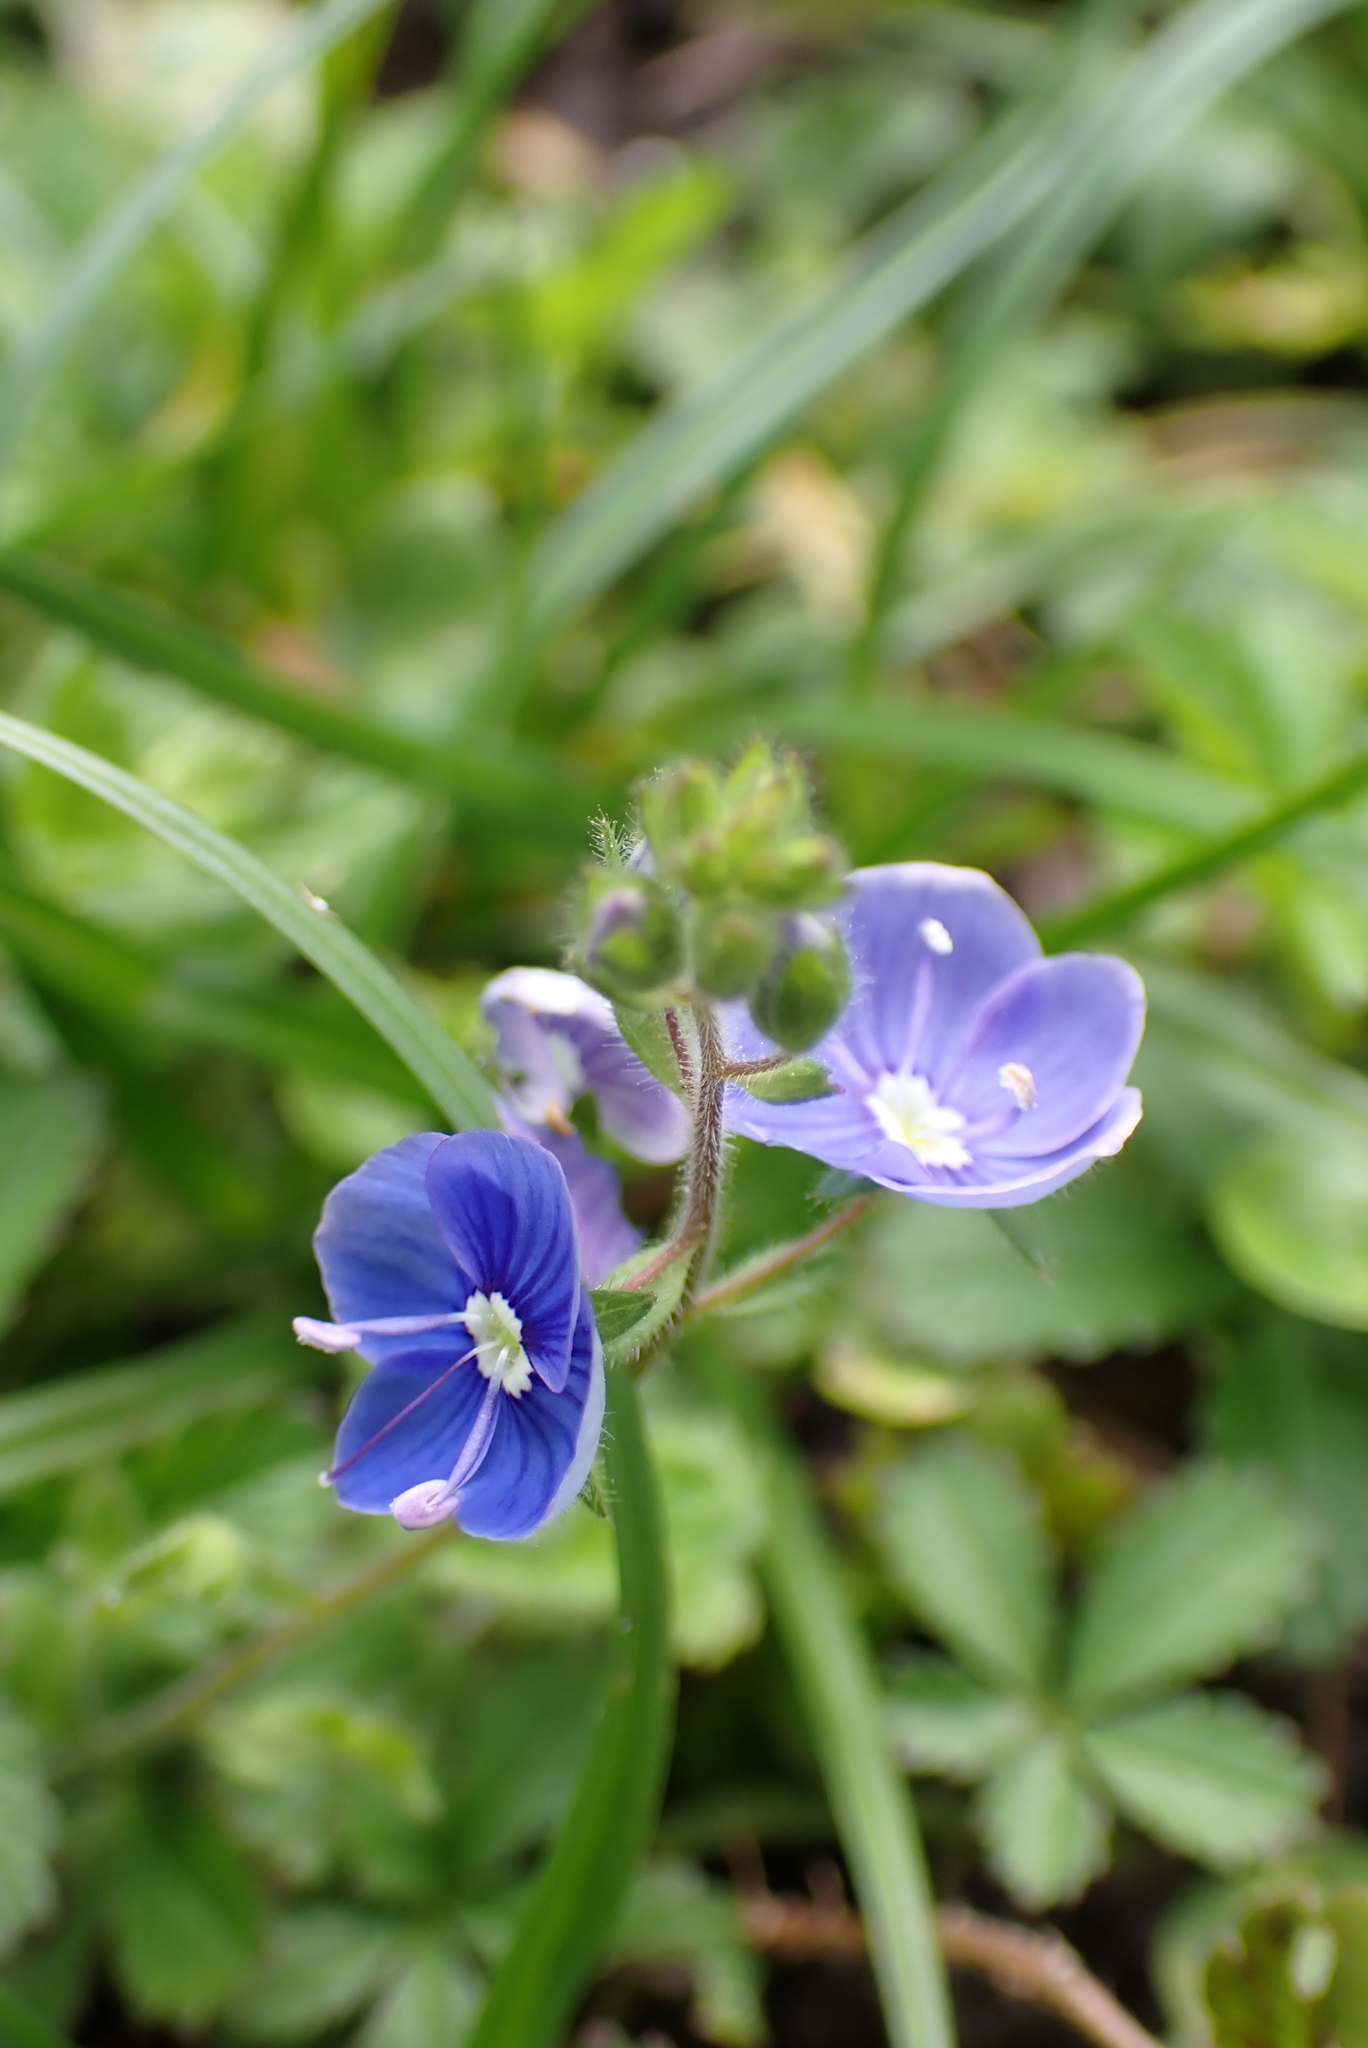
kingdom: Plantae
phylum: Tracheophyta
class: Magnoliopsida
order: Lamiales
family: Plantaginaceae
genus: Veronica
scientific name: Veronica chamaedrys
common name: Germander speedwell
